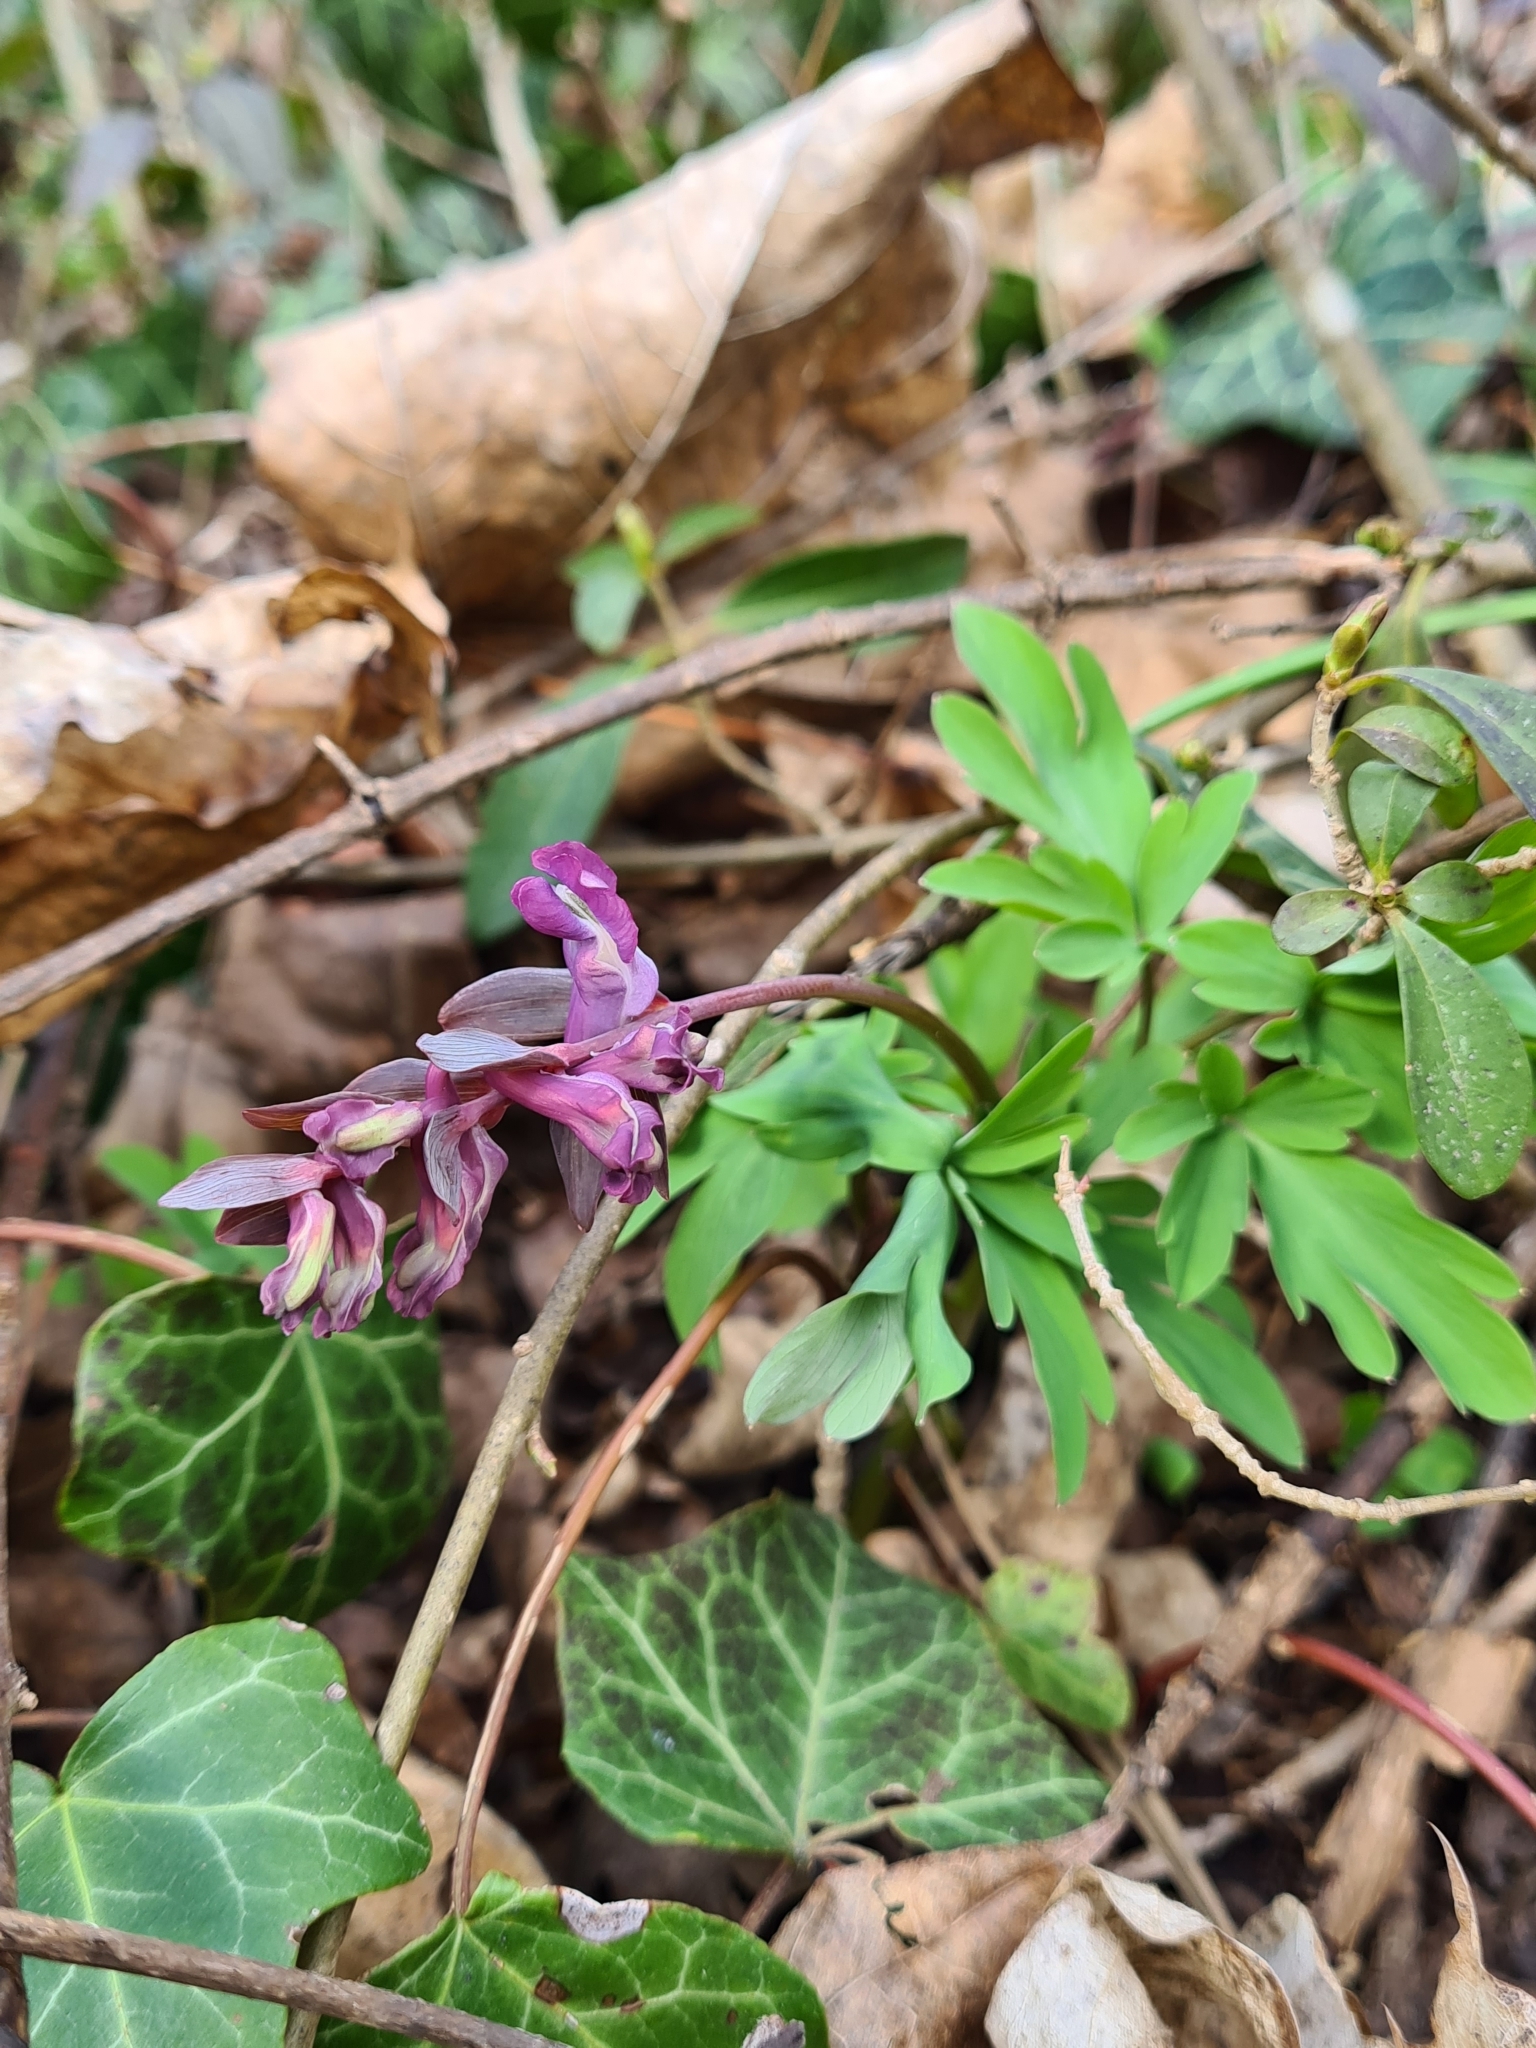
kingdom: Plantae
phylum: Tracheophyta
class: Magnoliopsida
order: Ranunculales
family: Papaveraceae
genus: Corydalis
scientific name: Corydalis cava
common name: Hollowroot
